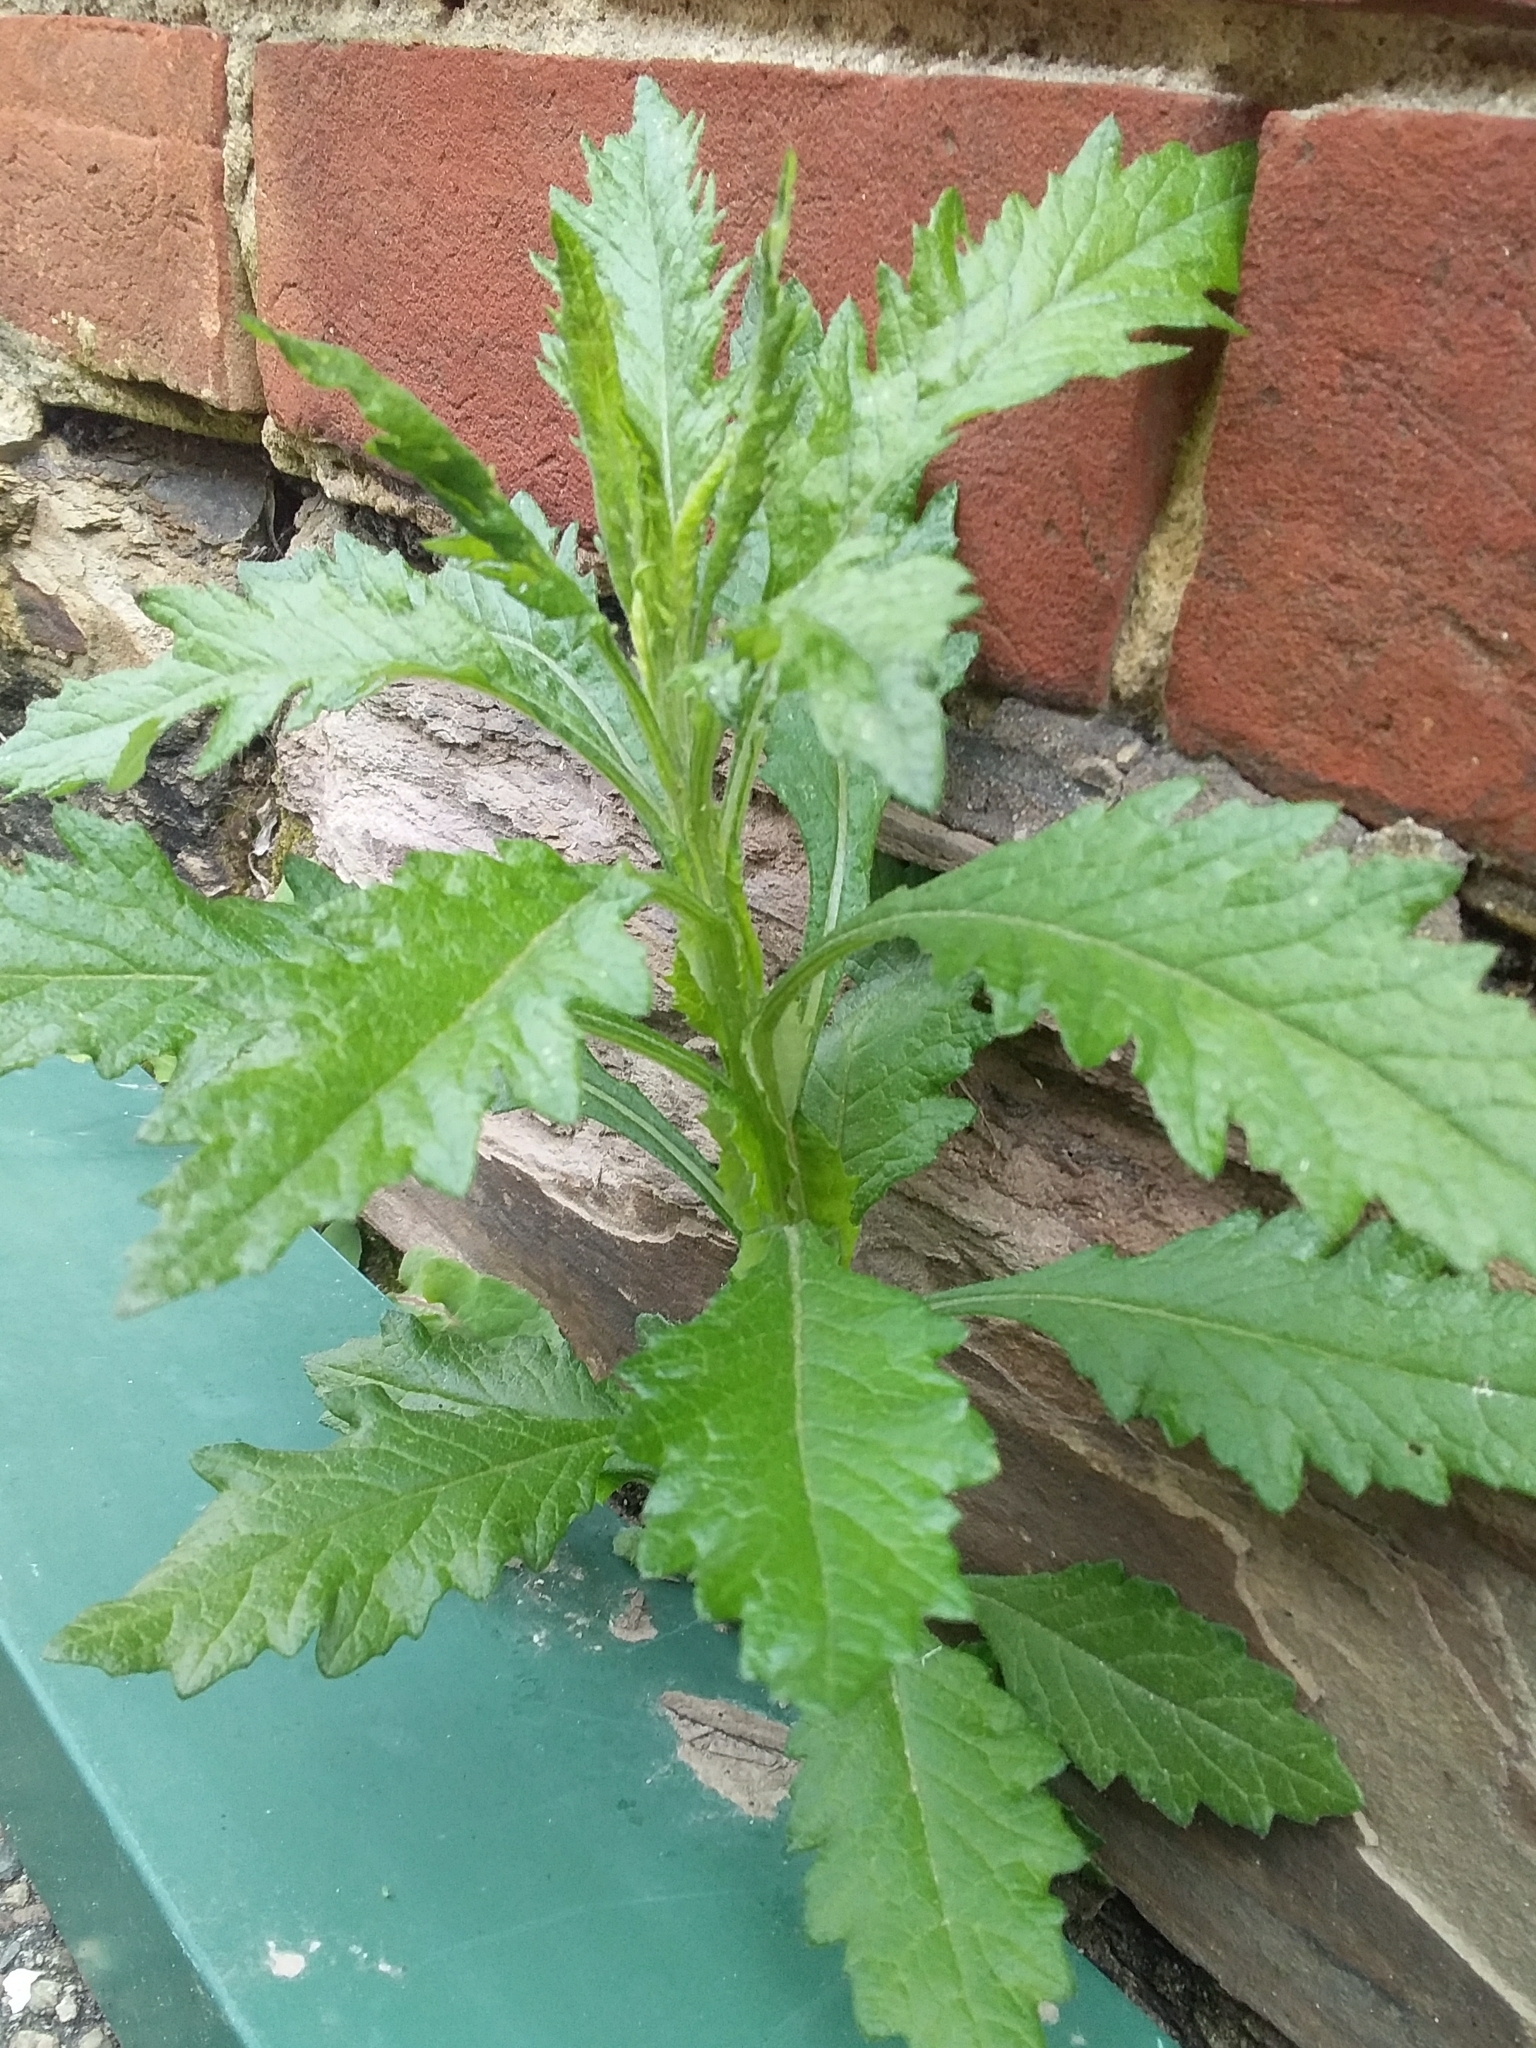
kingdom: Plantae
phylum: Tracheophyta
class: Magnoliopsida
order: Asterales
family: Asteraceae
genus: Senecio
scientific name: Senecio pterophorus
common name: Shoddy ragwort
